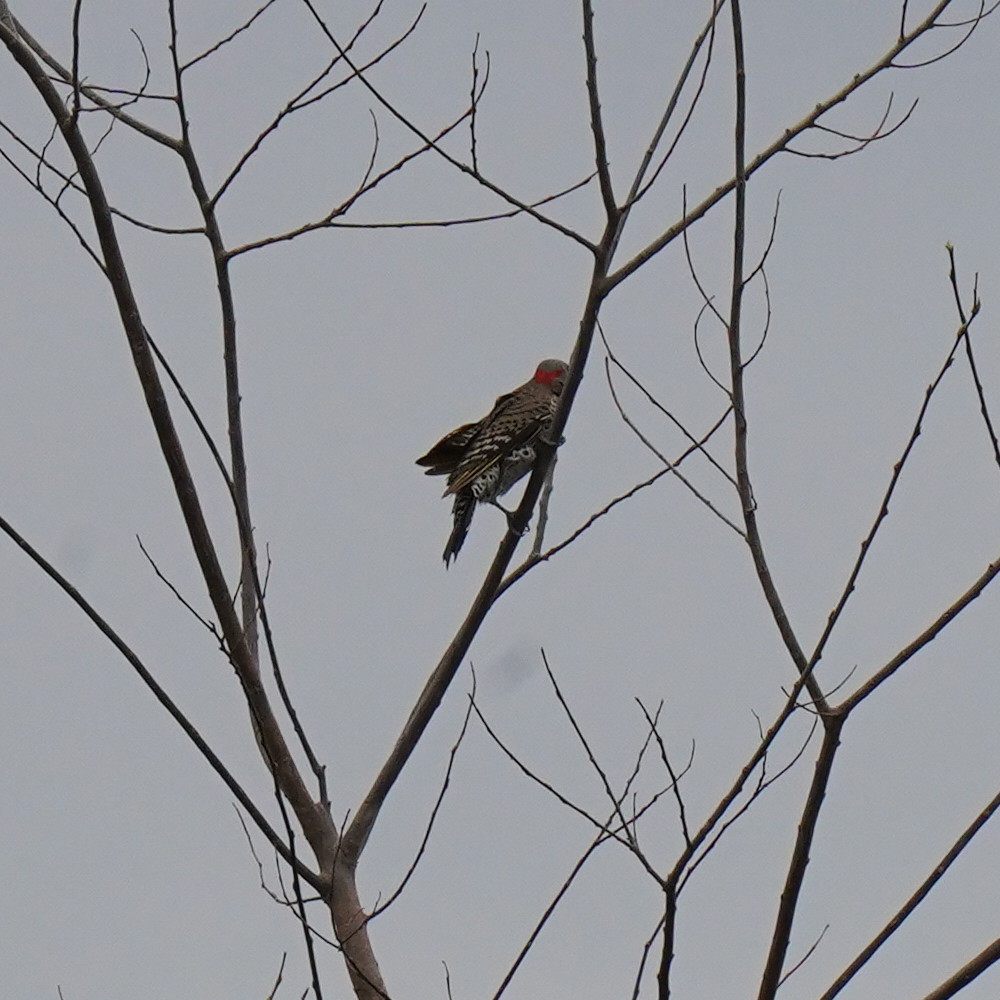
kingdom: Animalia
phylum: Chordata
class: Aves
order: Piciformes
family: Picidae
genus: Colaptes
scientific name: Colaptes auratus
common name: Northern flicker
